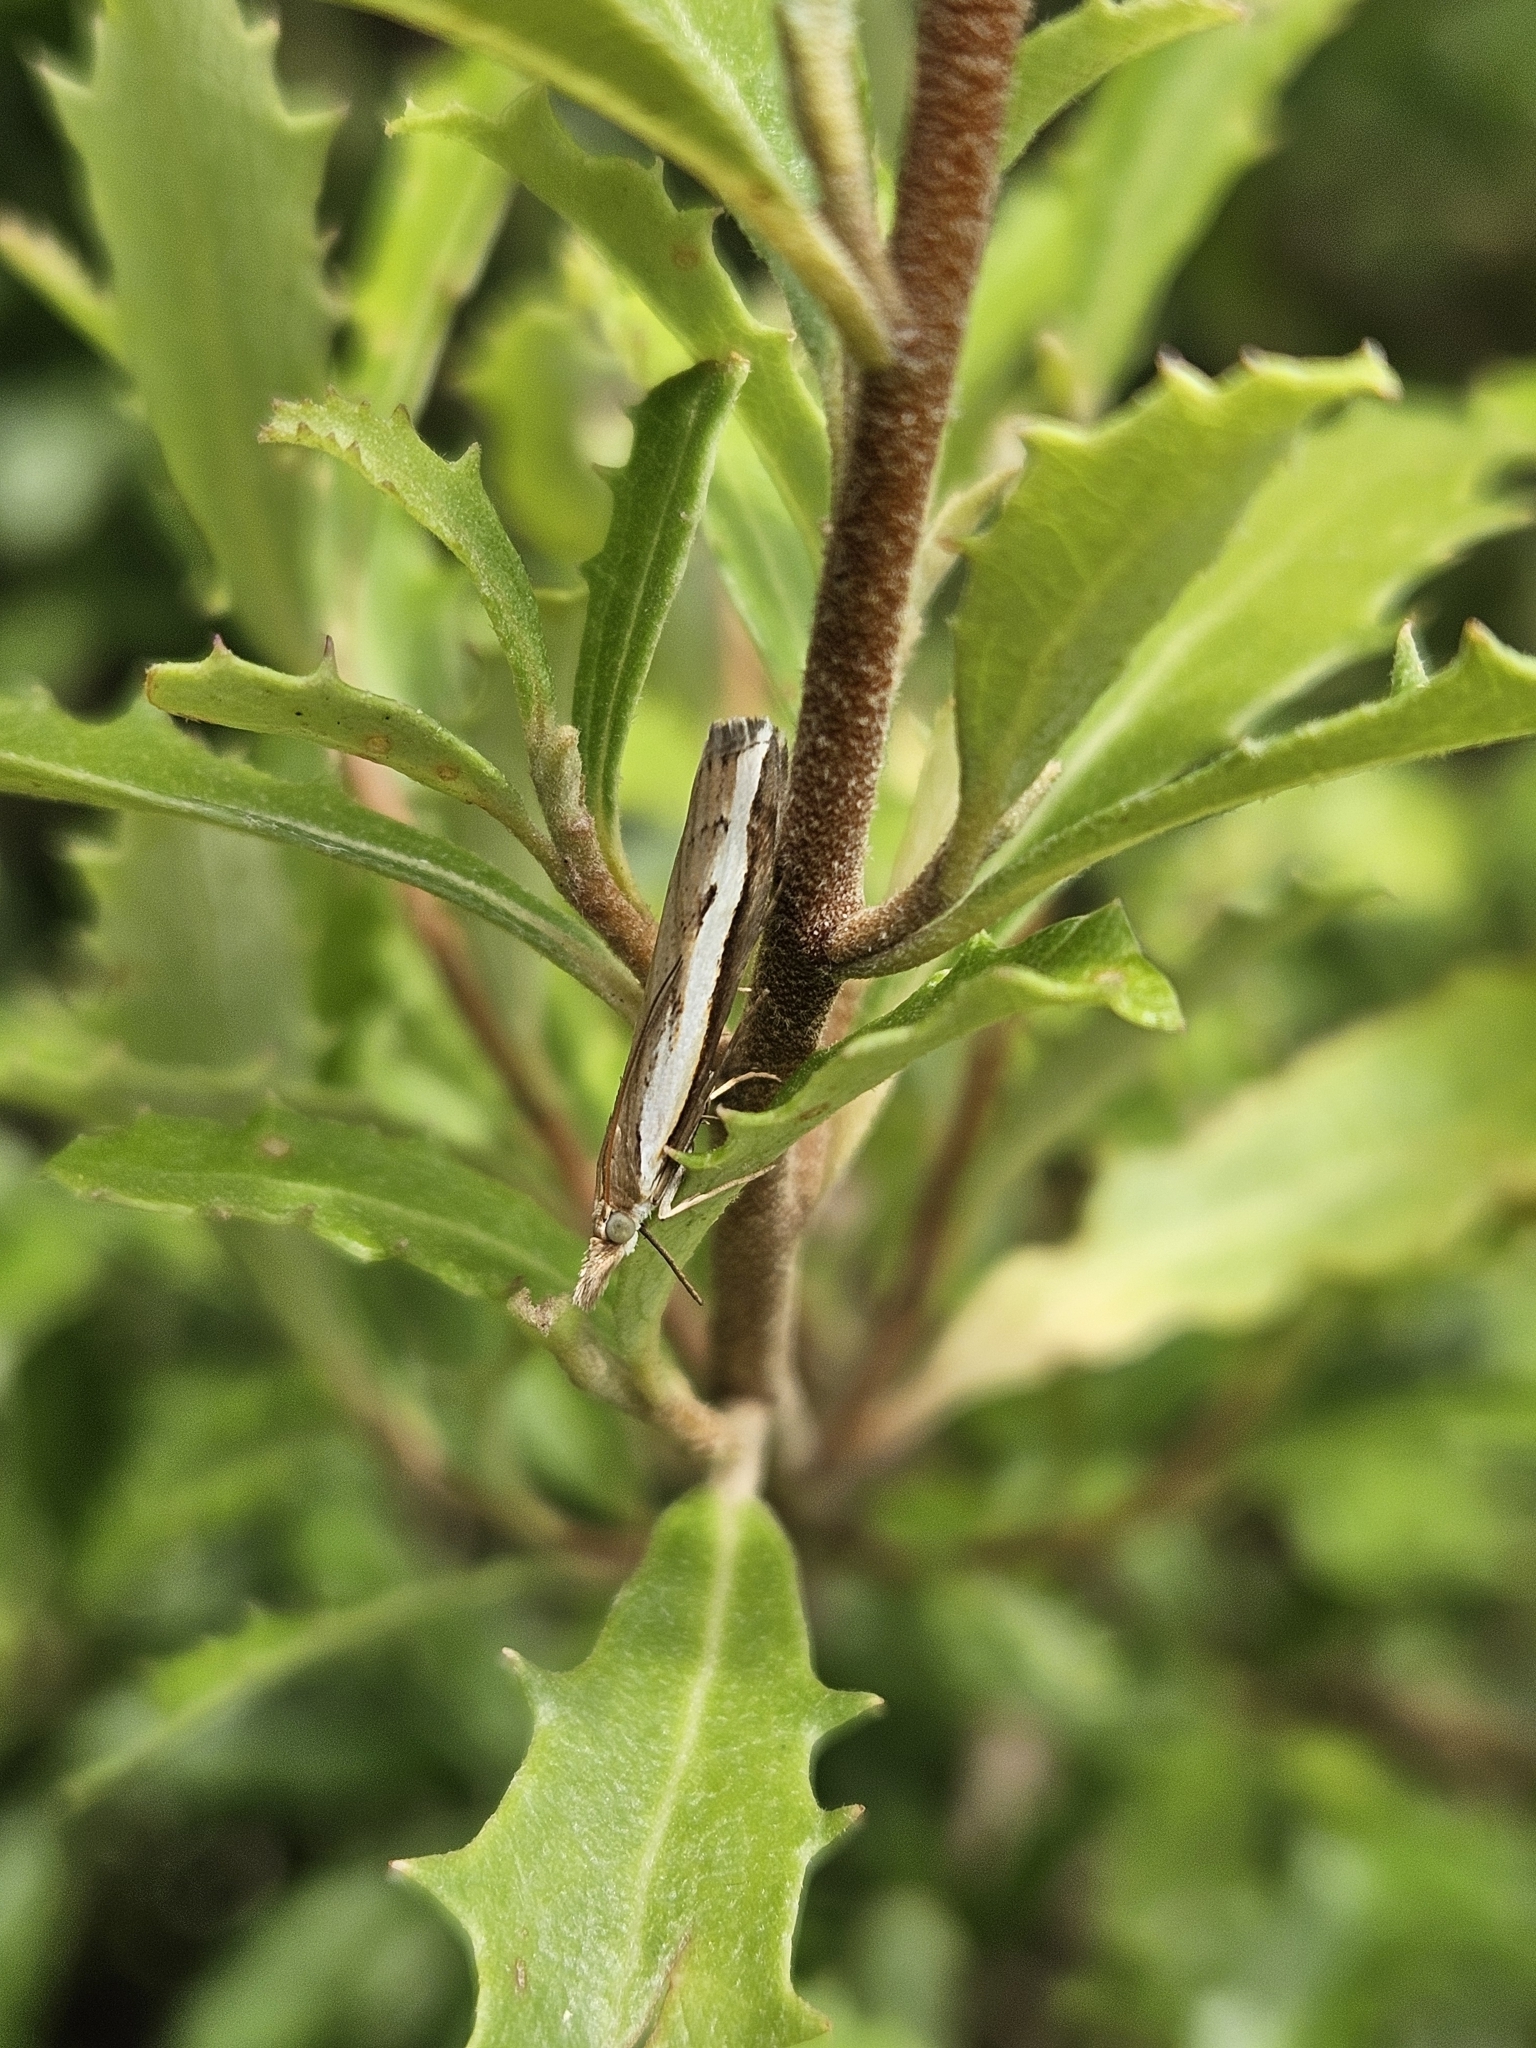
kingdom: Animalia
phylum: Arthropoda
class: Insecta
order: Lepidoptera
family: Crambidae
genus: Orocrambus
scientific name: Orocrambus flexuosellus
